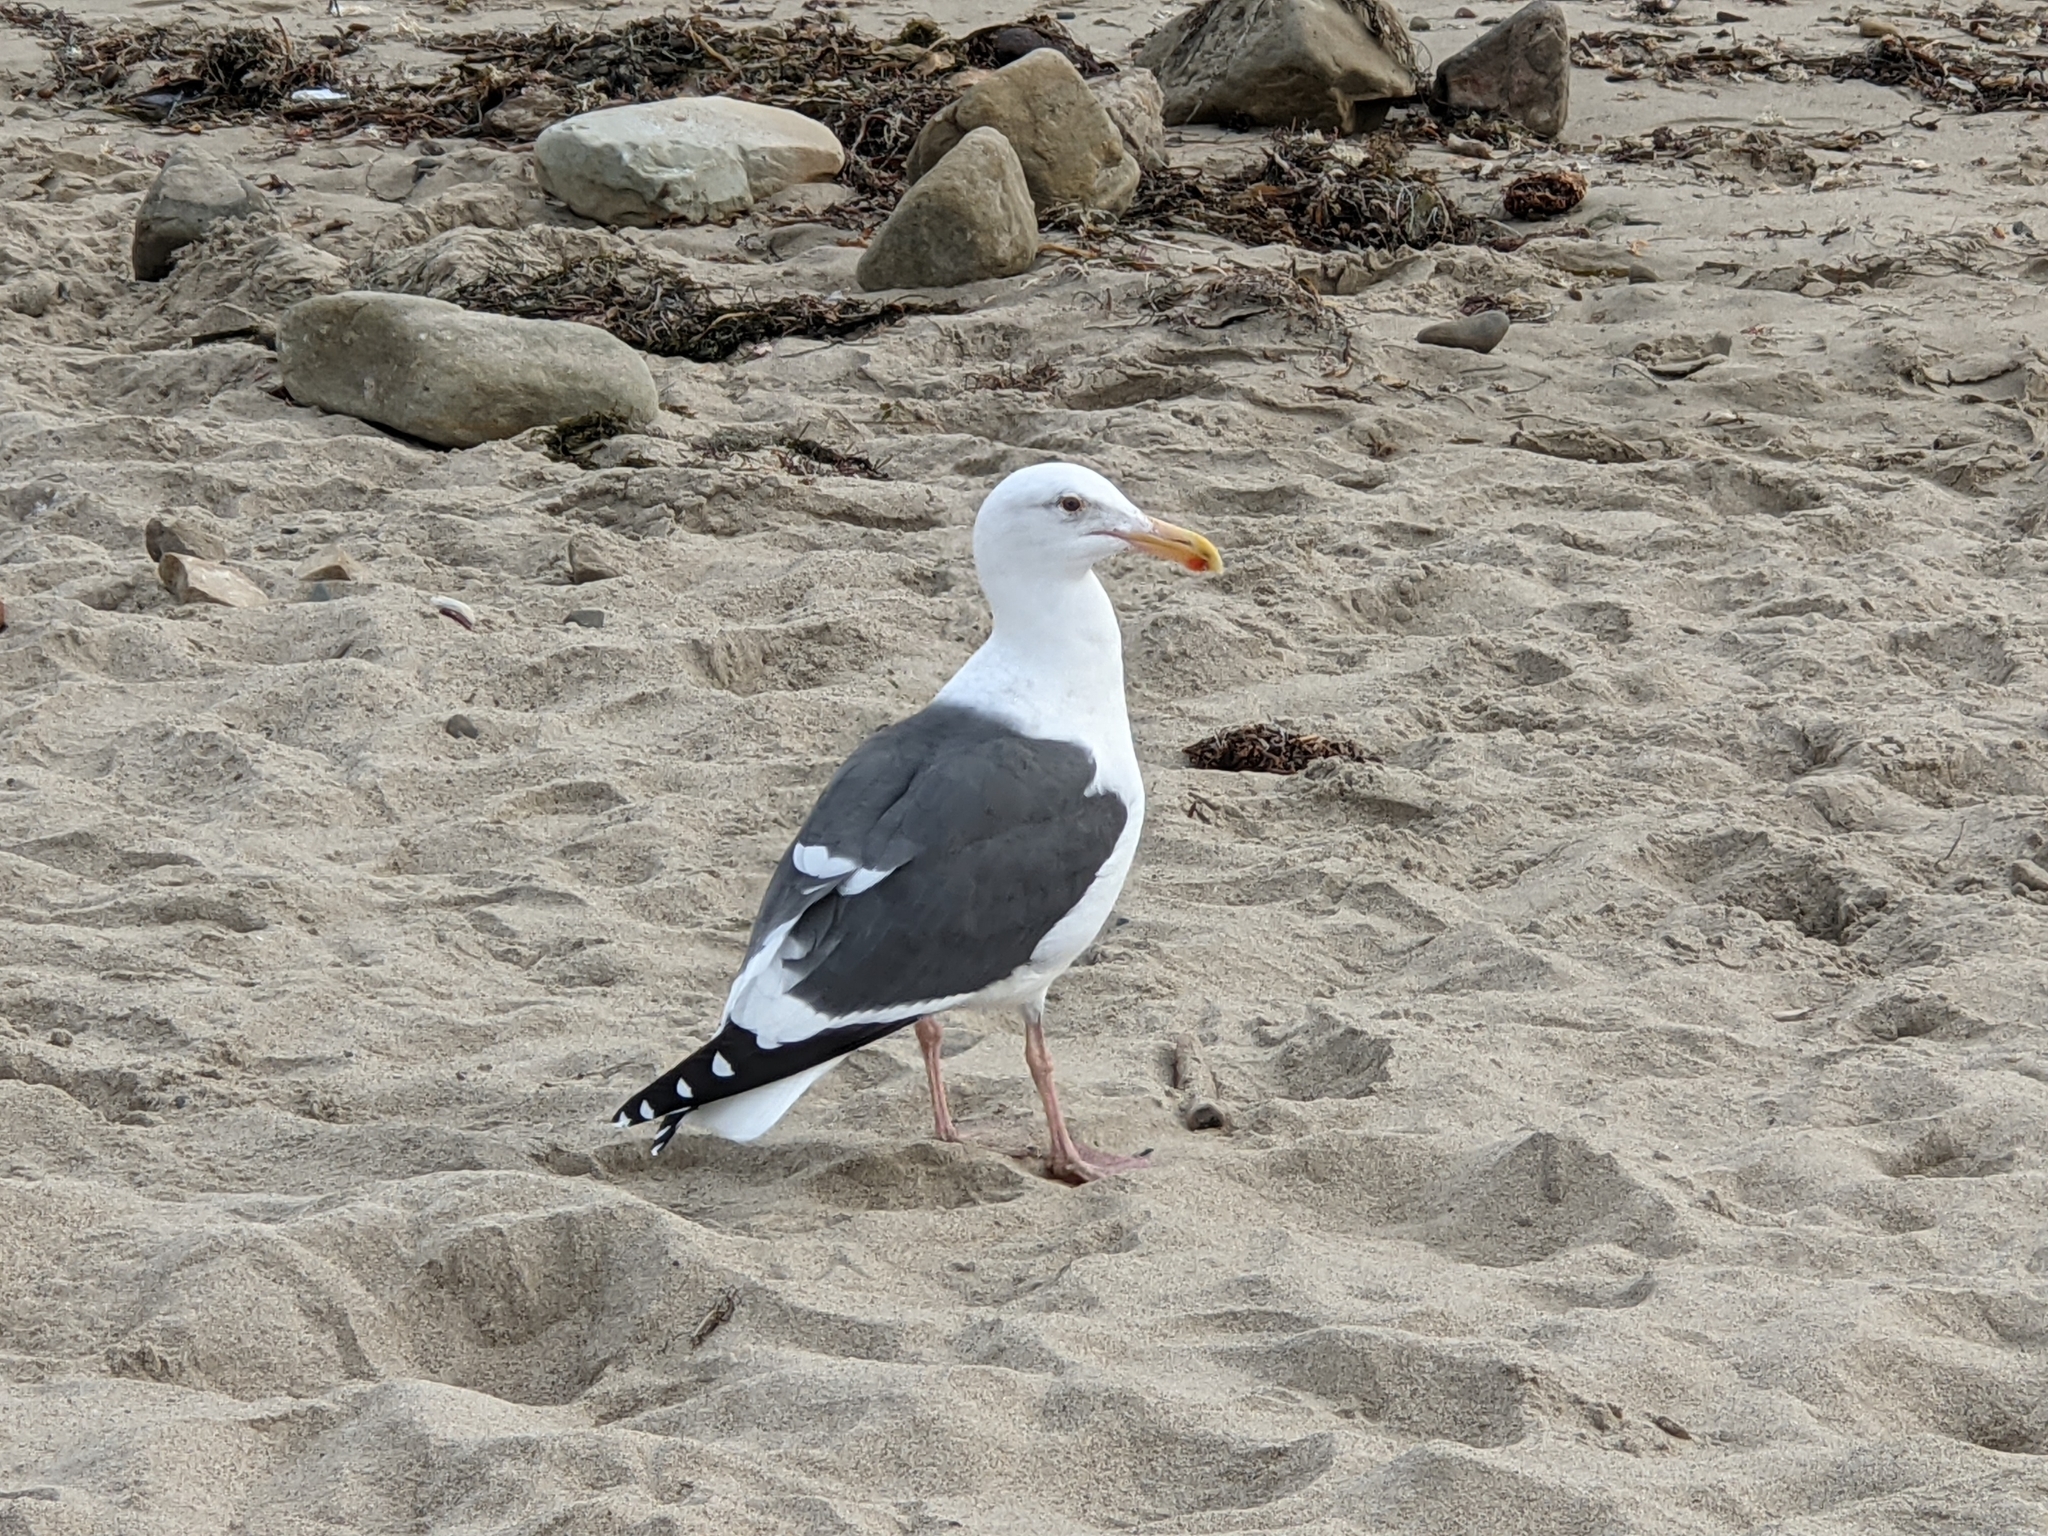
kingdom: Animalia
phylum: Chordata
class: Aves
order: Charadriiformes
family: Laridae
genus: Larus
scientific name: Larus occidentalis
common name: Western gull
